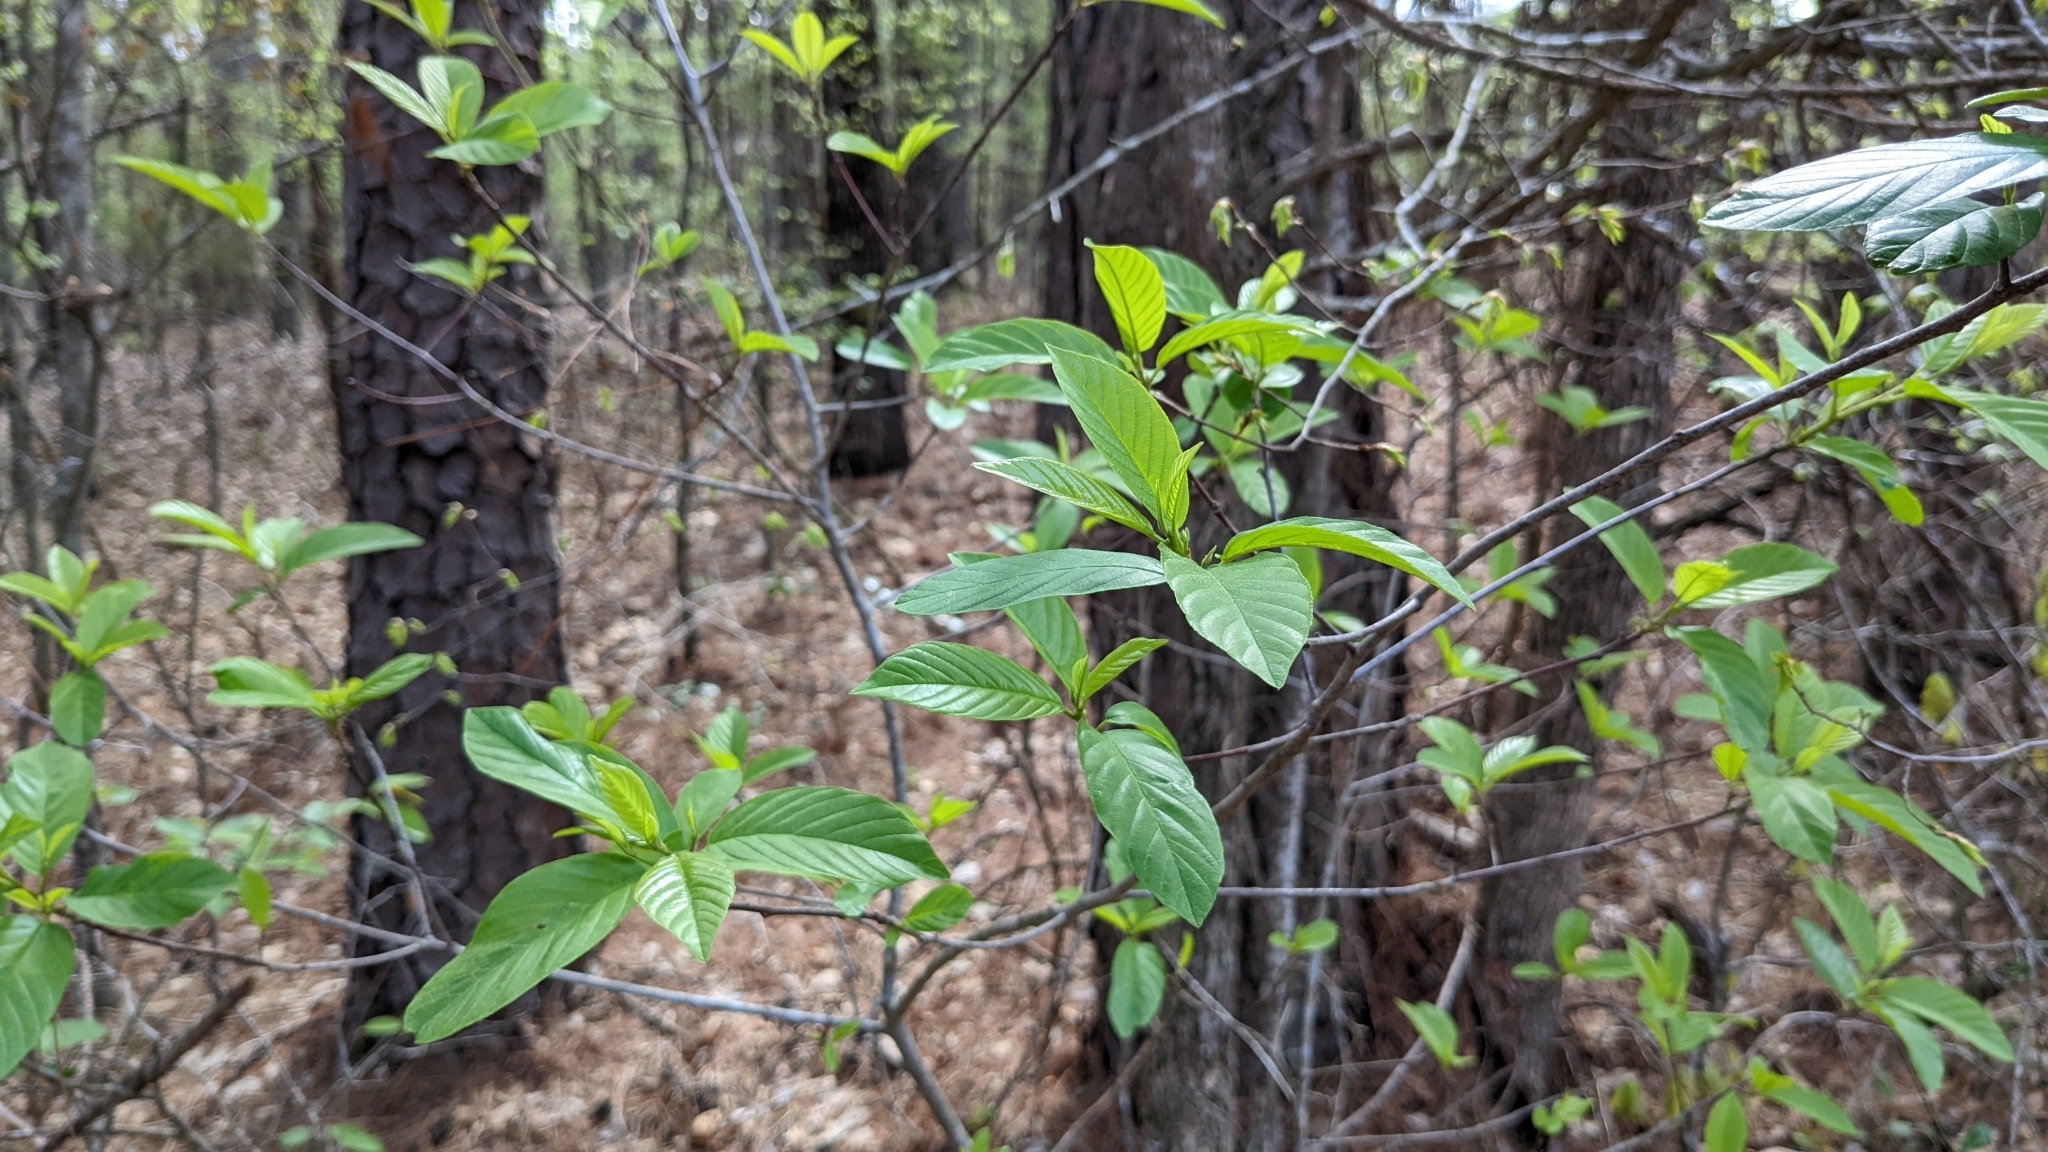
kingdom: Plantae
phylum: Tracheophyta
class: Magnoliopsida
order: Rosales
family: Rhamnaceae
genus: Frangula
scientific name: Frangula caroliniana
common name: Carolina buckthorn
